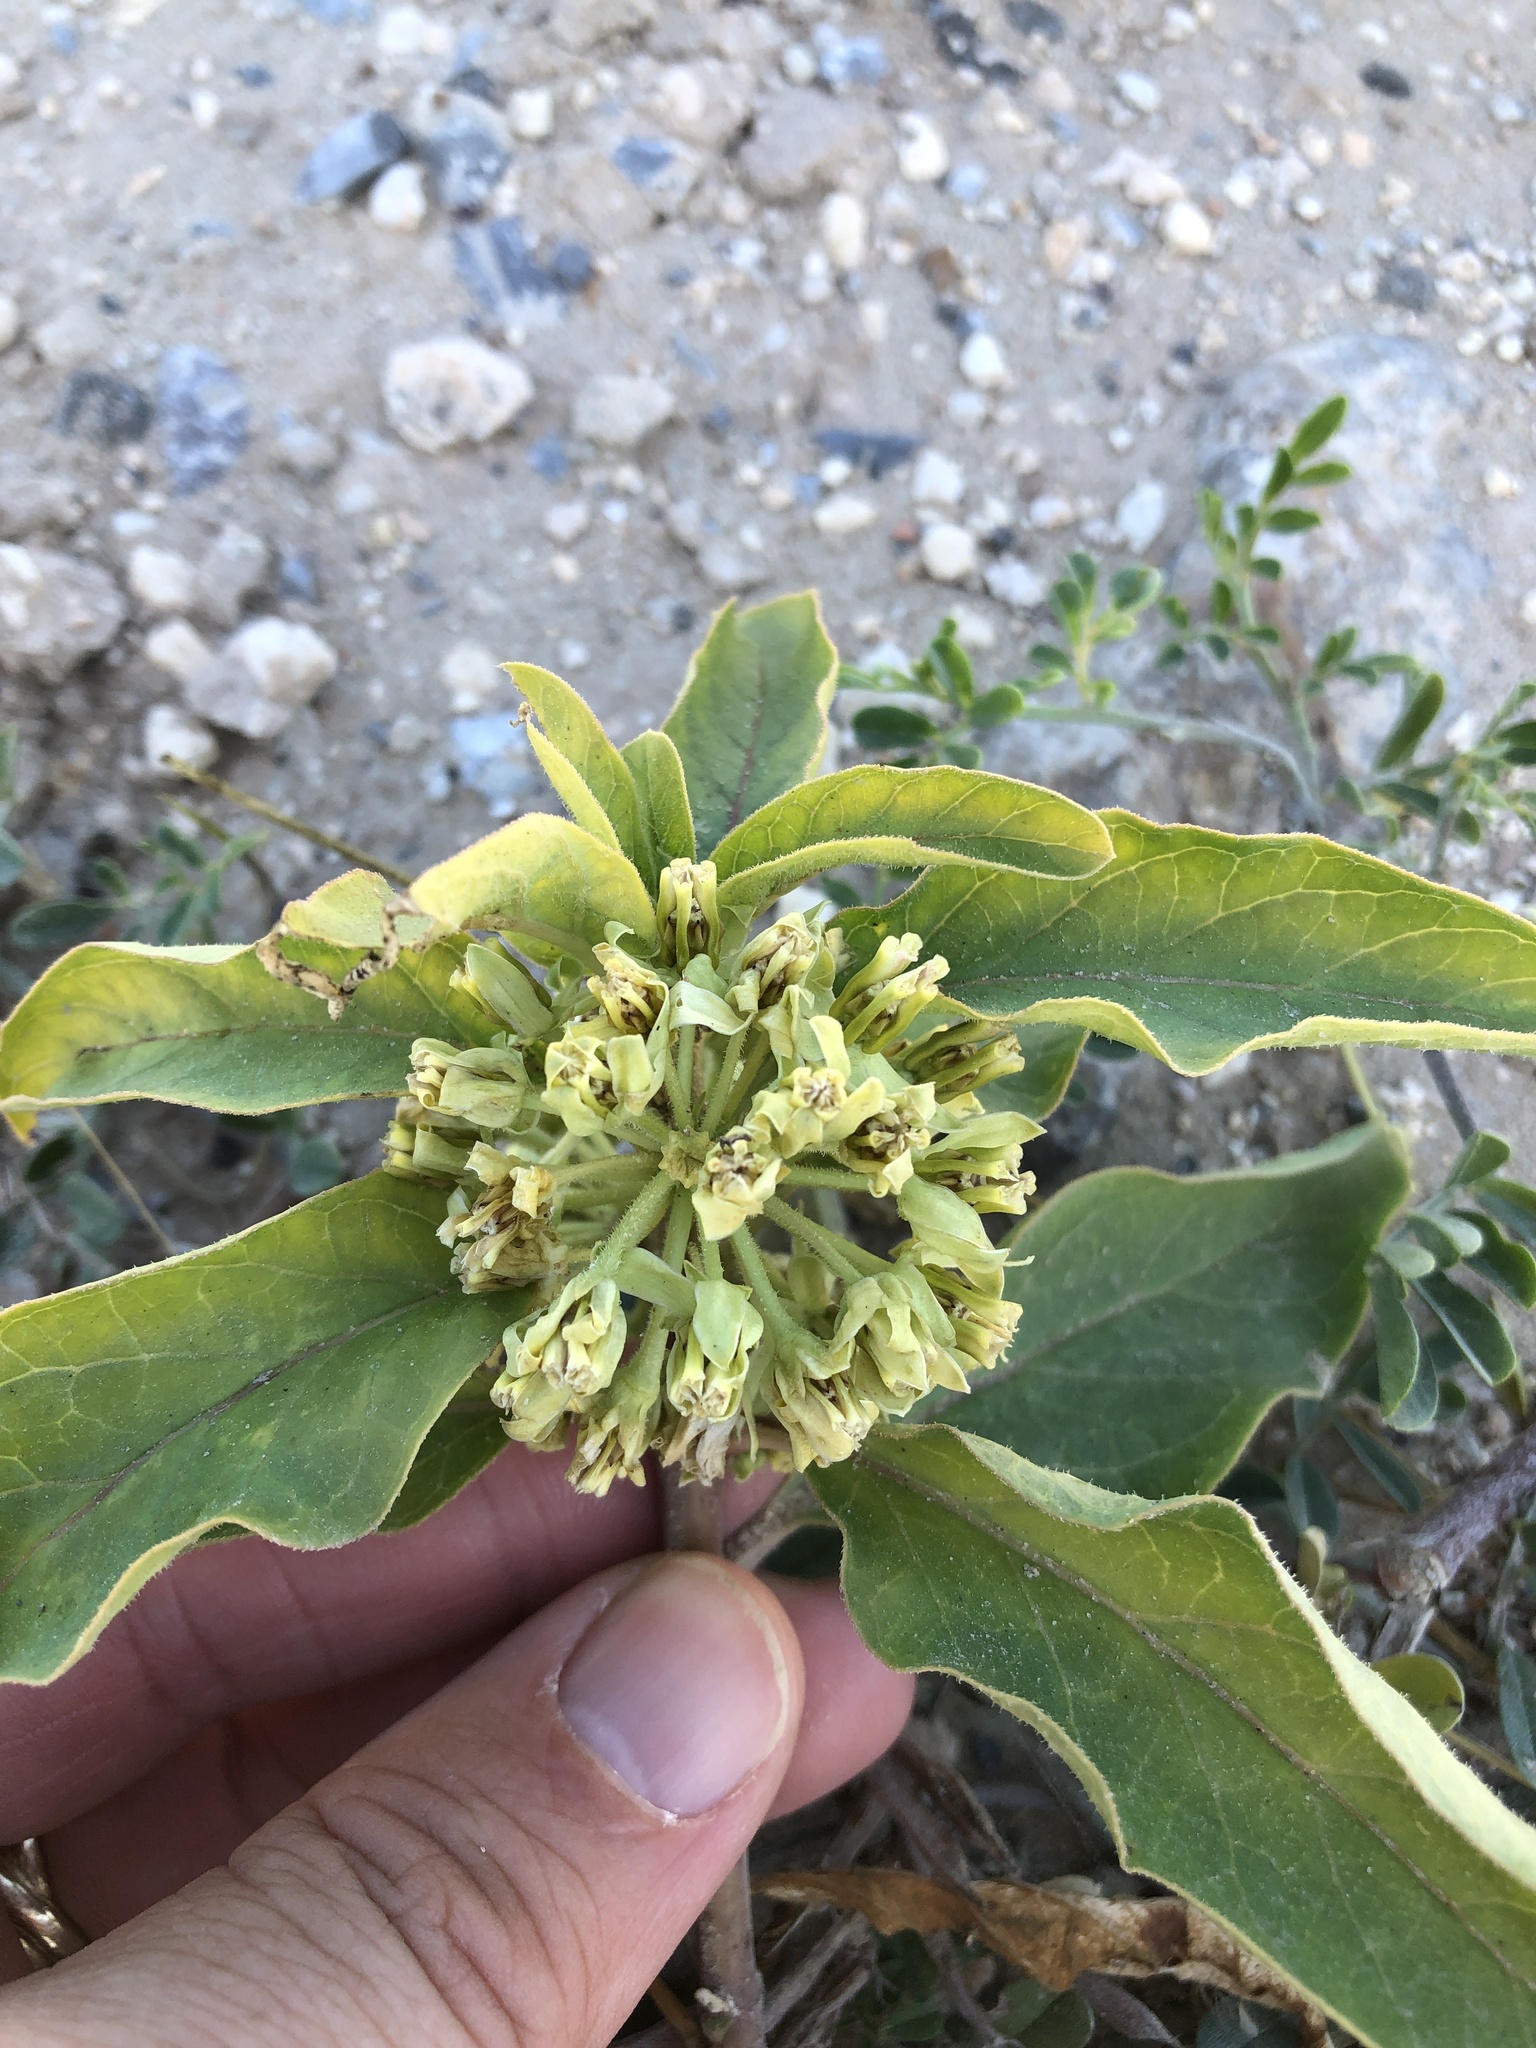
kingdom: Plantae
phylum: Tracheophyta
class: Magnoliopsida
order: Gentianales
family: Apocynaceae
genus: Asclepias
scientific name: Asclepias oenotheroides
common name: Zizotes milkweed
